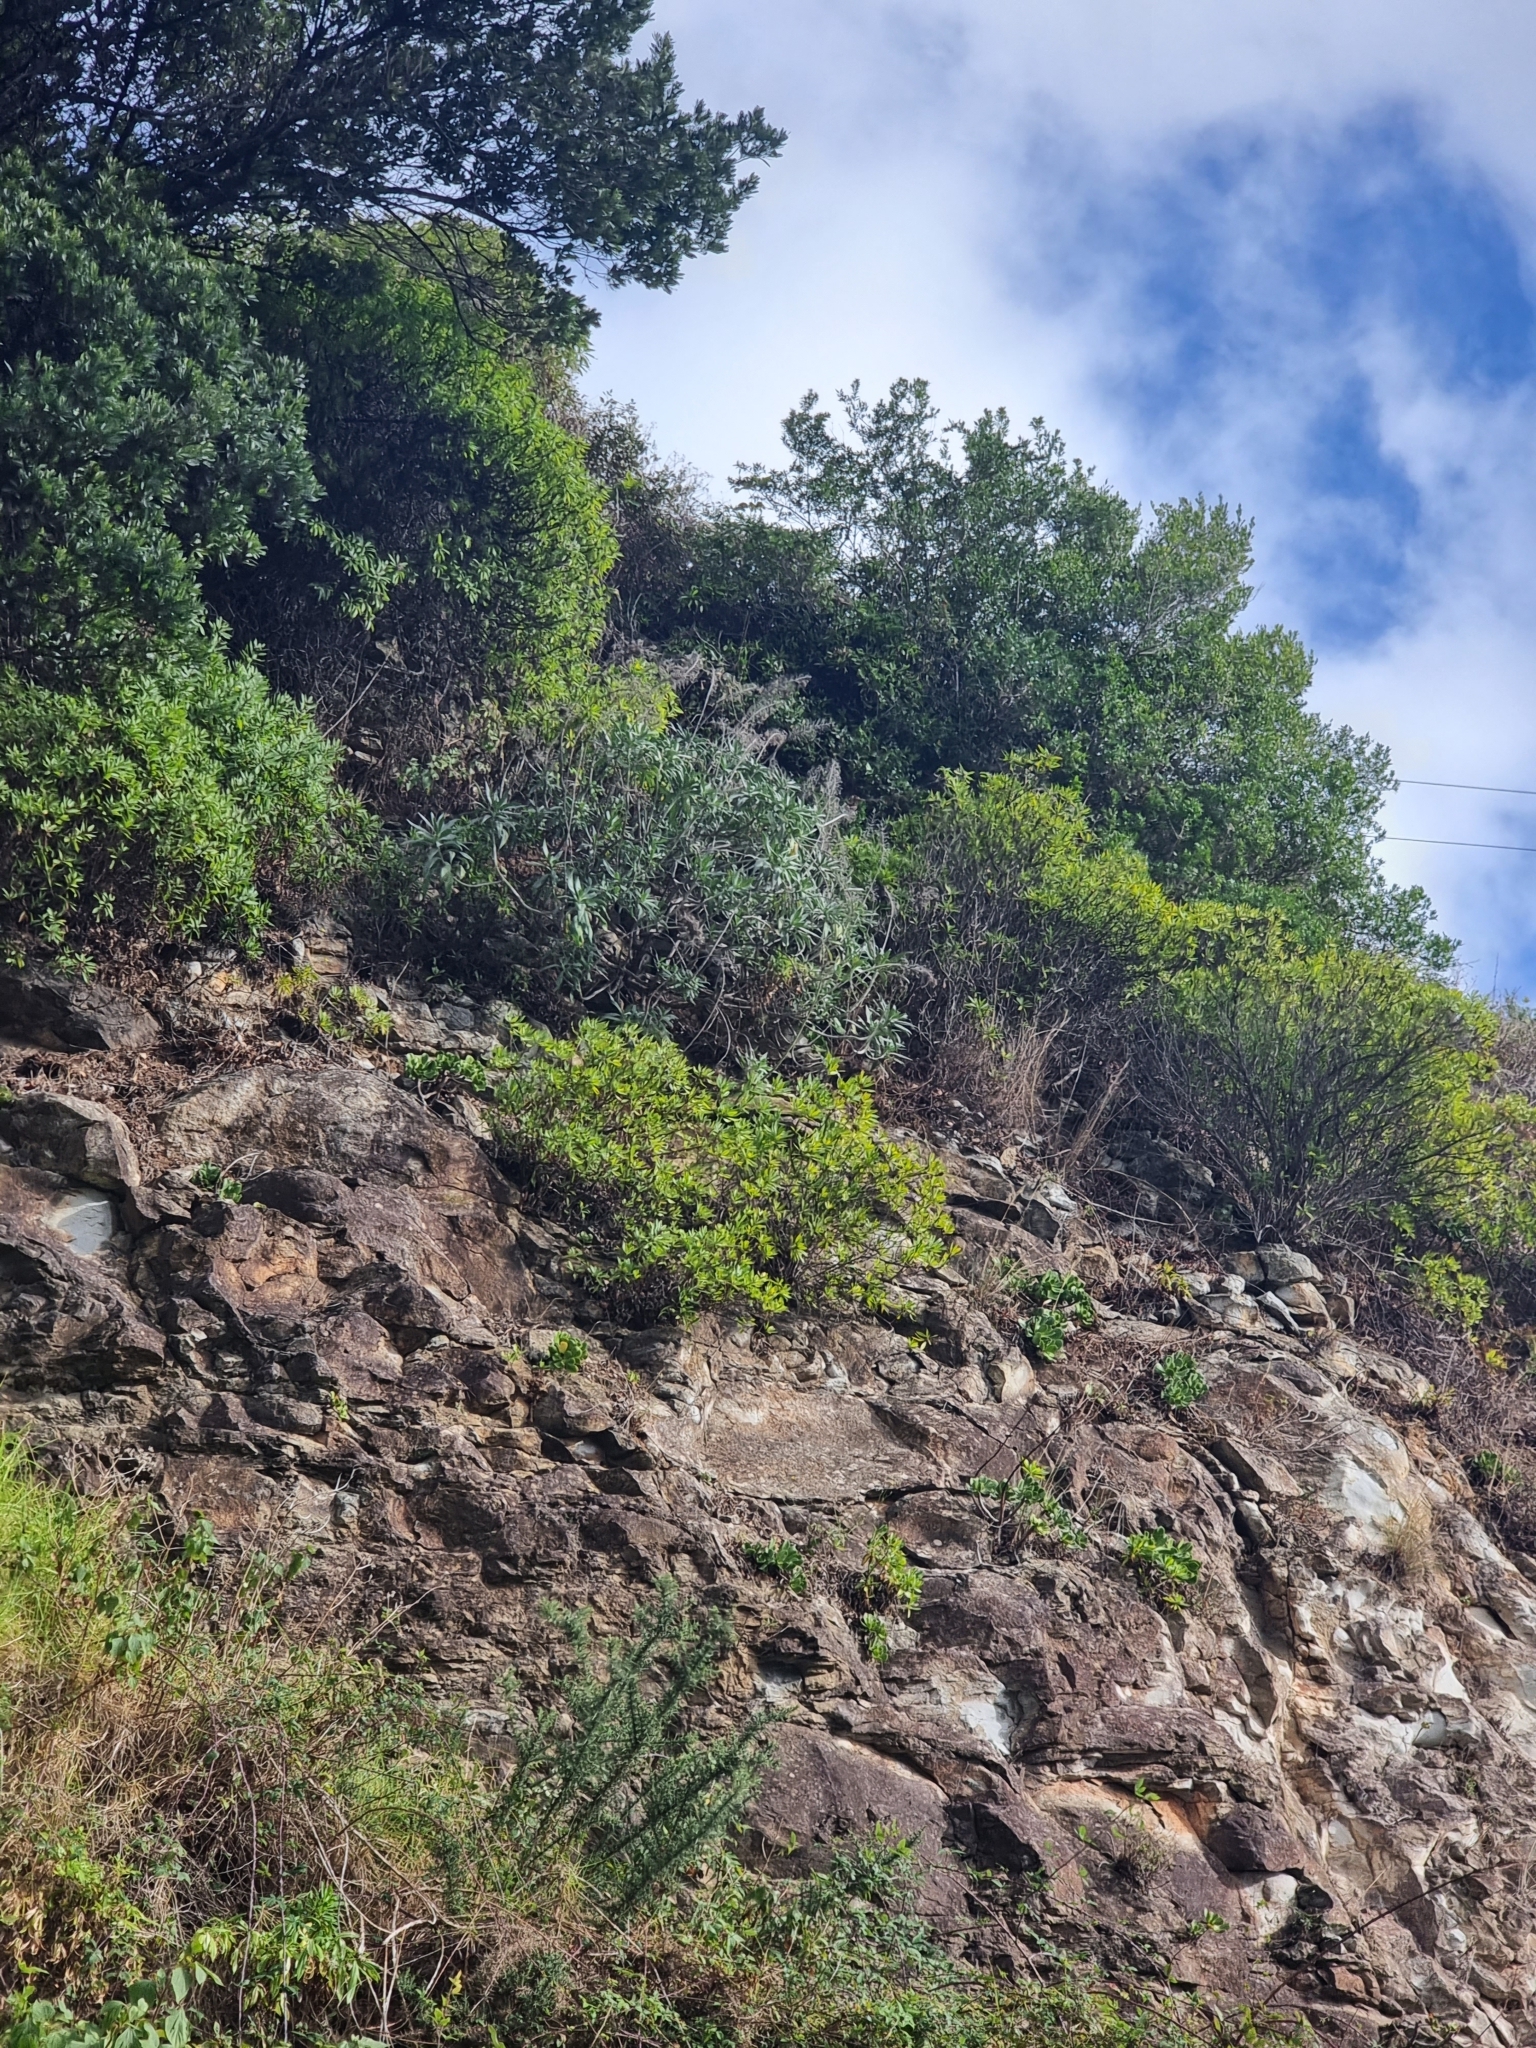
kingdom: Plantae
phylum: Tracheophyta
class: Magnoliopsida
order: Boraginales
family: Boraginaceae
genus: Echium
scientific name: Echium nervosum
